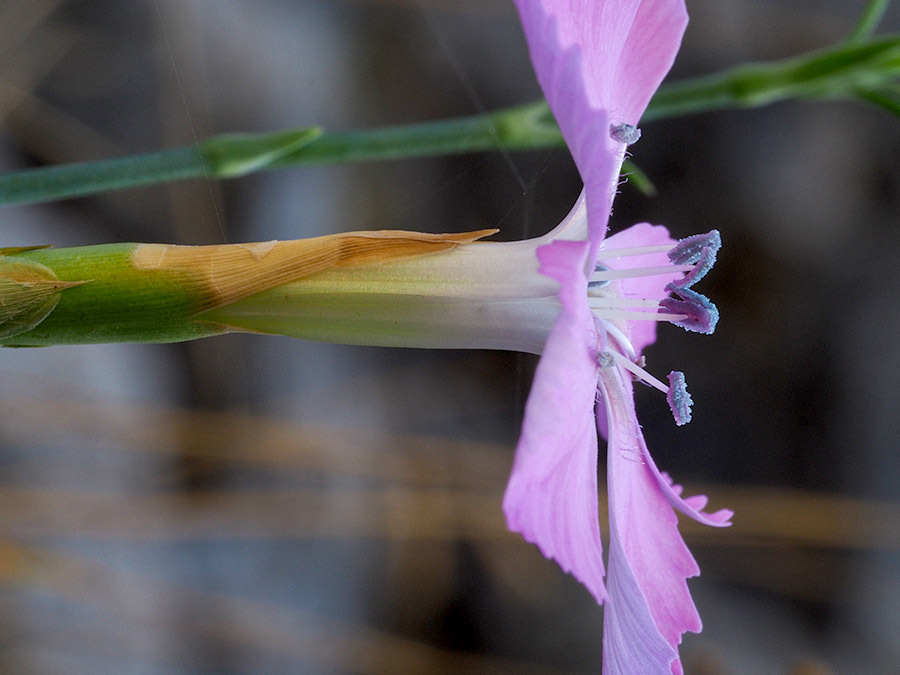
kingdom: Plantae
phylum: Tracheophyta
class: Magnoliopsida
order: Caryophyllales
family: Caryophyllaceae
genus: Dianthus
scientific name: Dianthus rupicola
